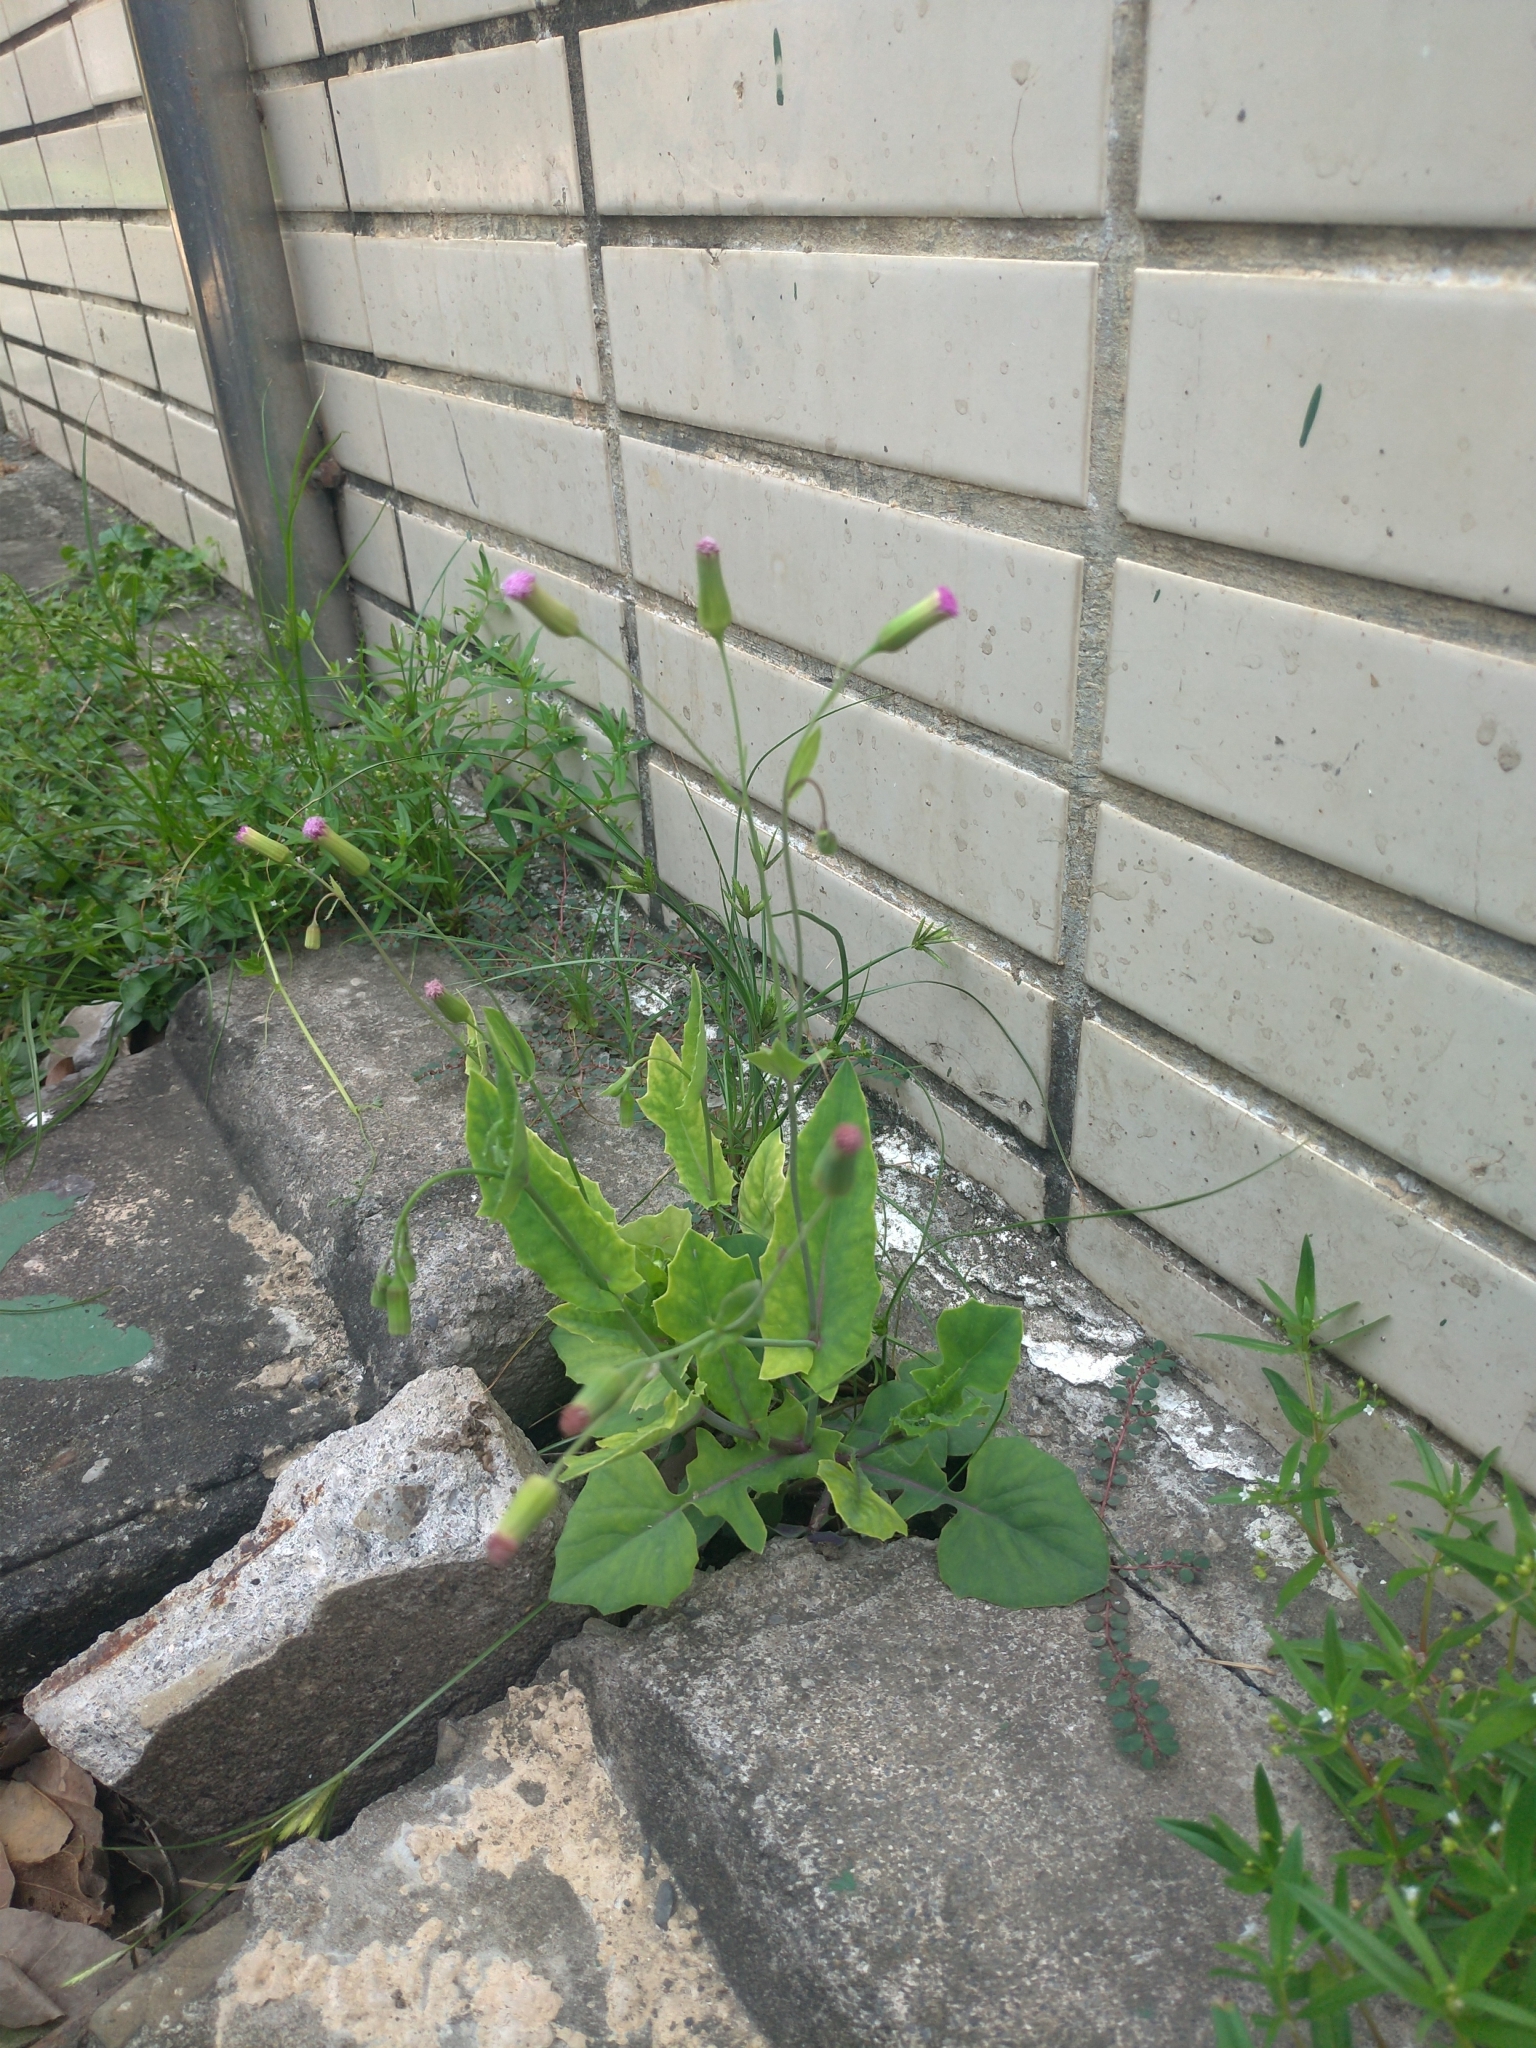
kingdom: Plantae
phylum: Tracheophyta
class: Magnoliopsida
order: Asterales
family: Asteraceae
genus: Emilia
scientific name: Emilia javanica
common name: Tassel-flower
